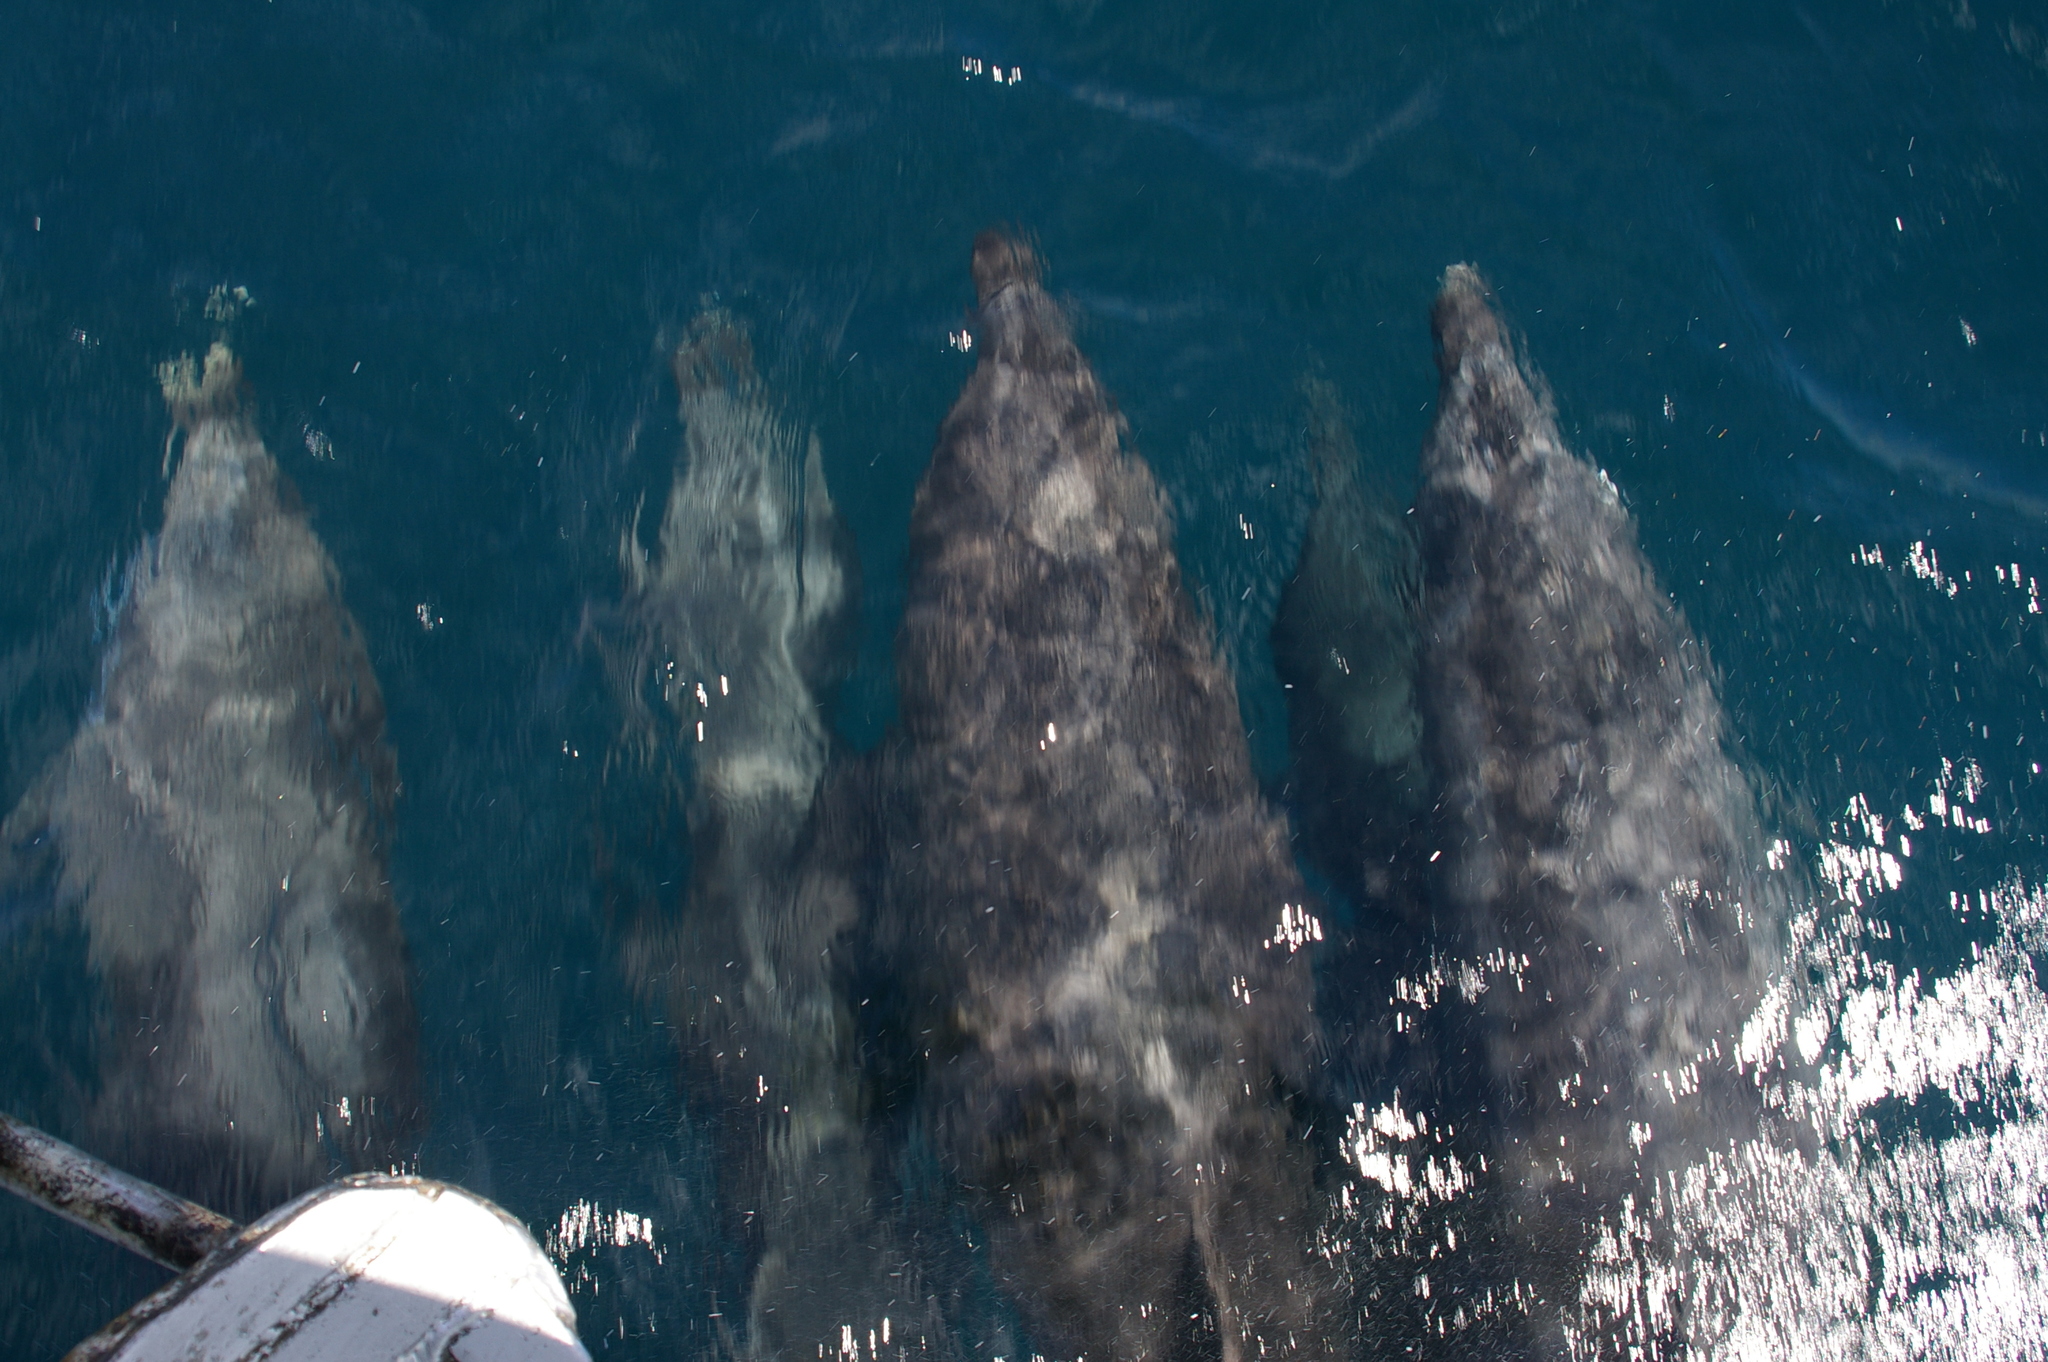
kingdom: Animalia
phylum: Chordata
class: Mammalia
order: Cetacea
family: Delphinidae
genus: Tursiops
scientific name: Tursiops truncatus
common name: Bottlenose dolphin
